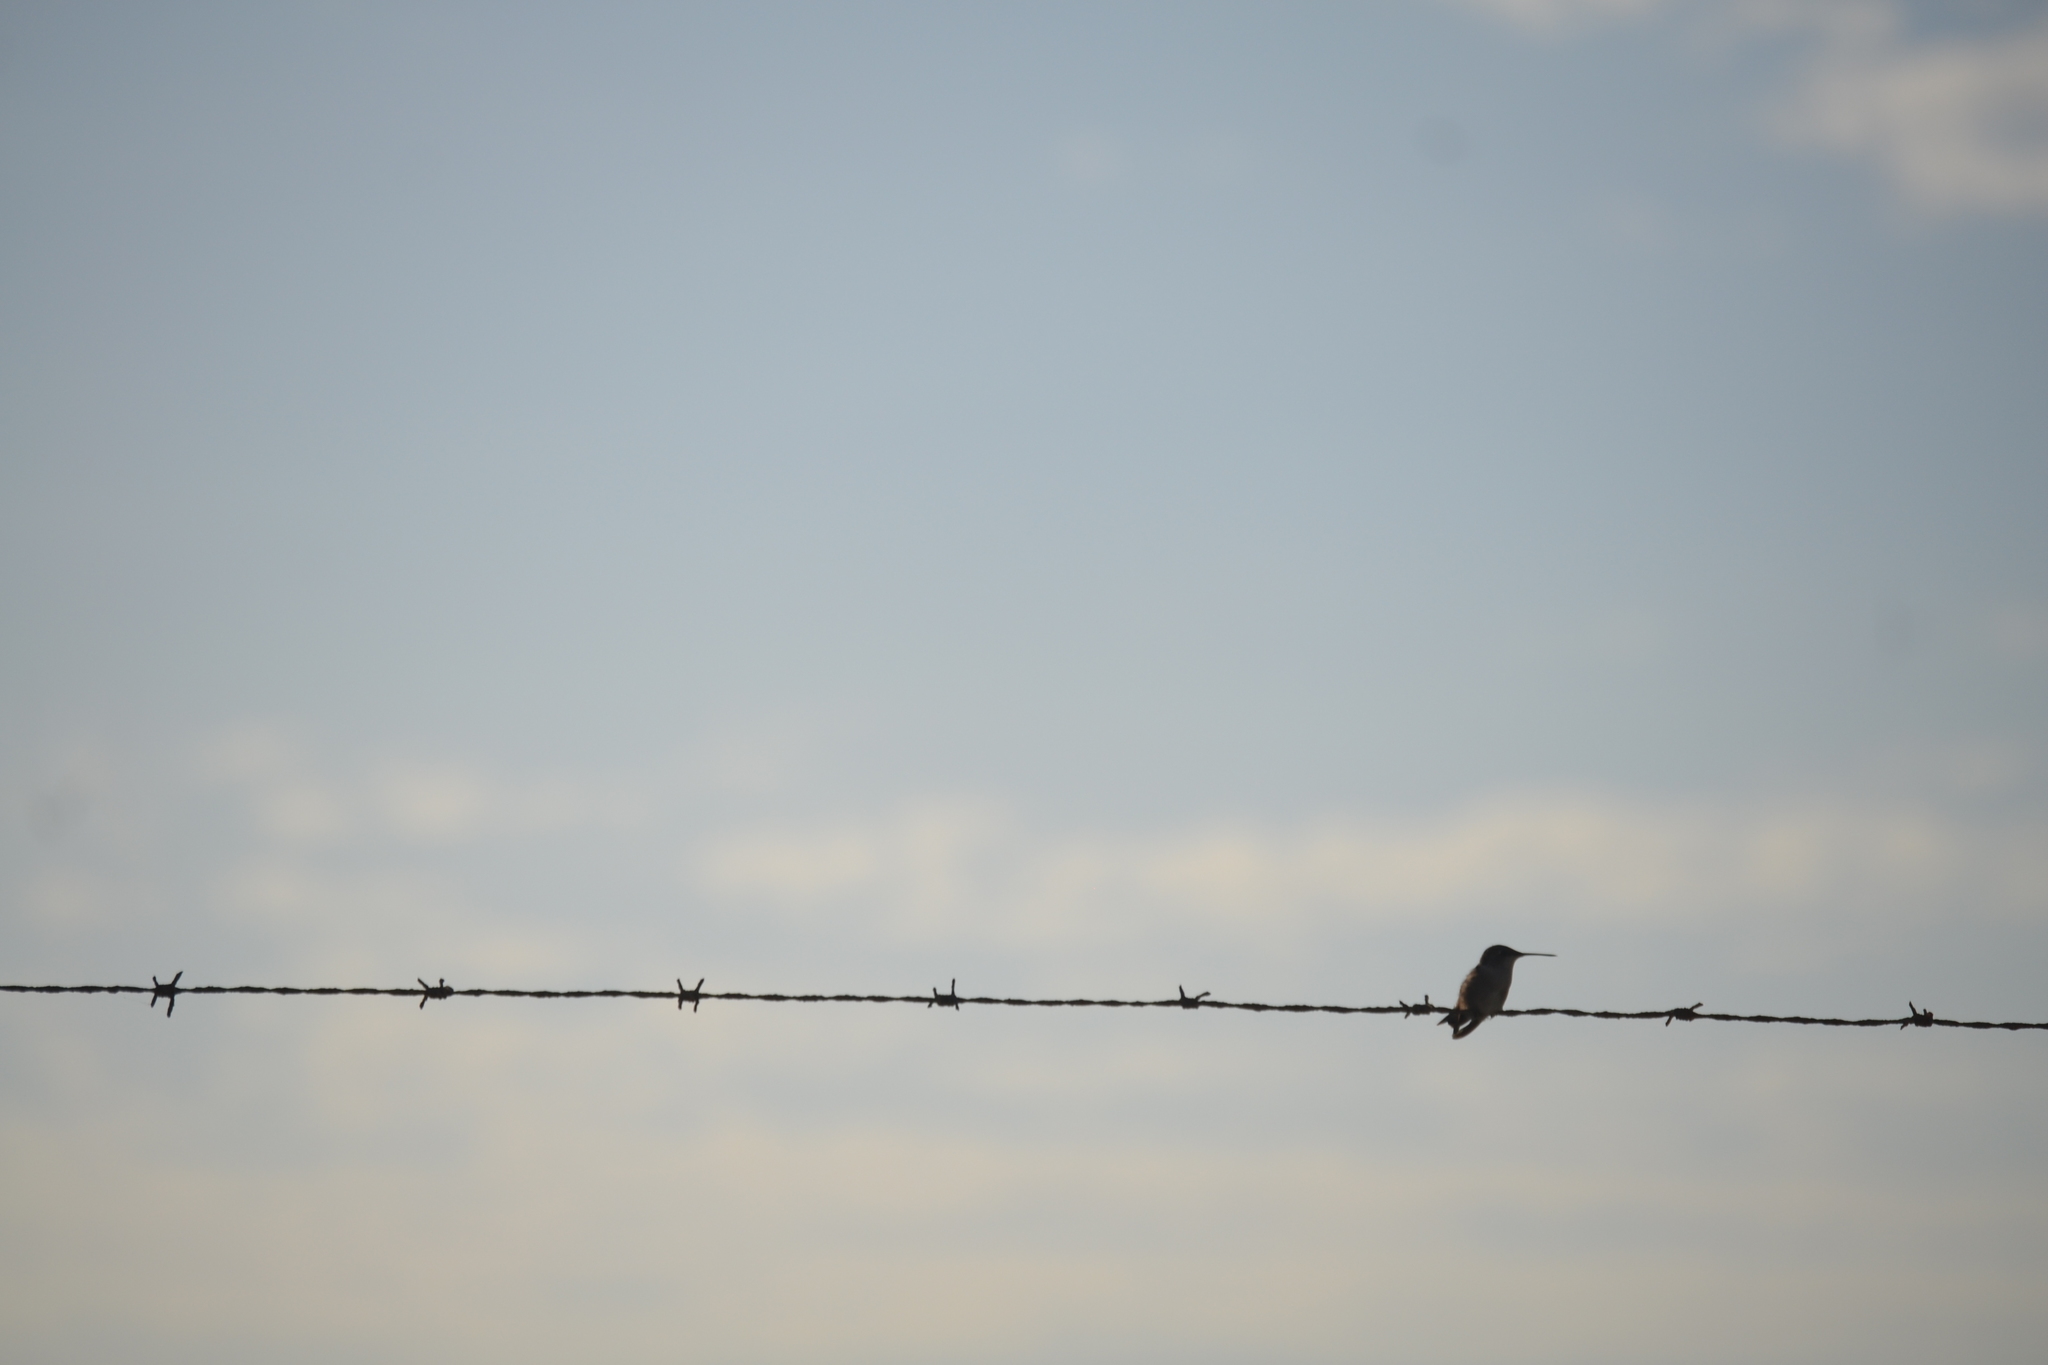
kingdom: Animalia
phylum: Chordata
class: Aves
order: Apodiformes
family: Trochilidae
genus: Archilochus
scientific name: Archilochus colubris
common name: Ruby-throated hummingbird
